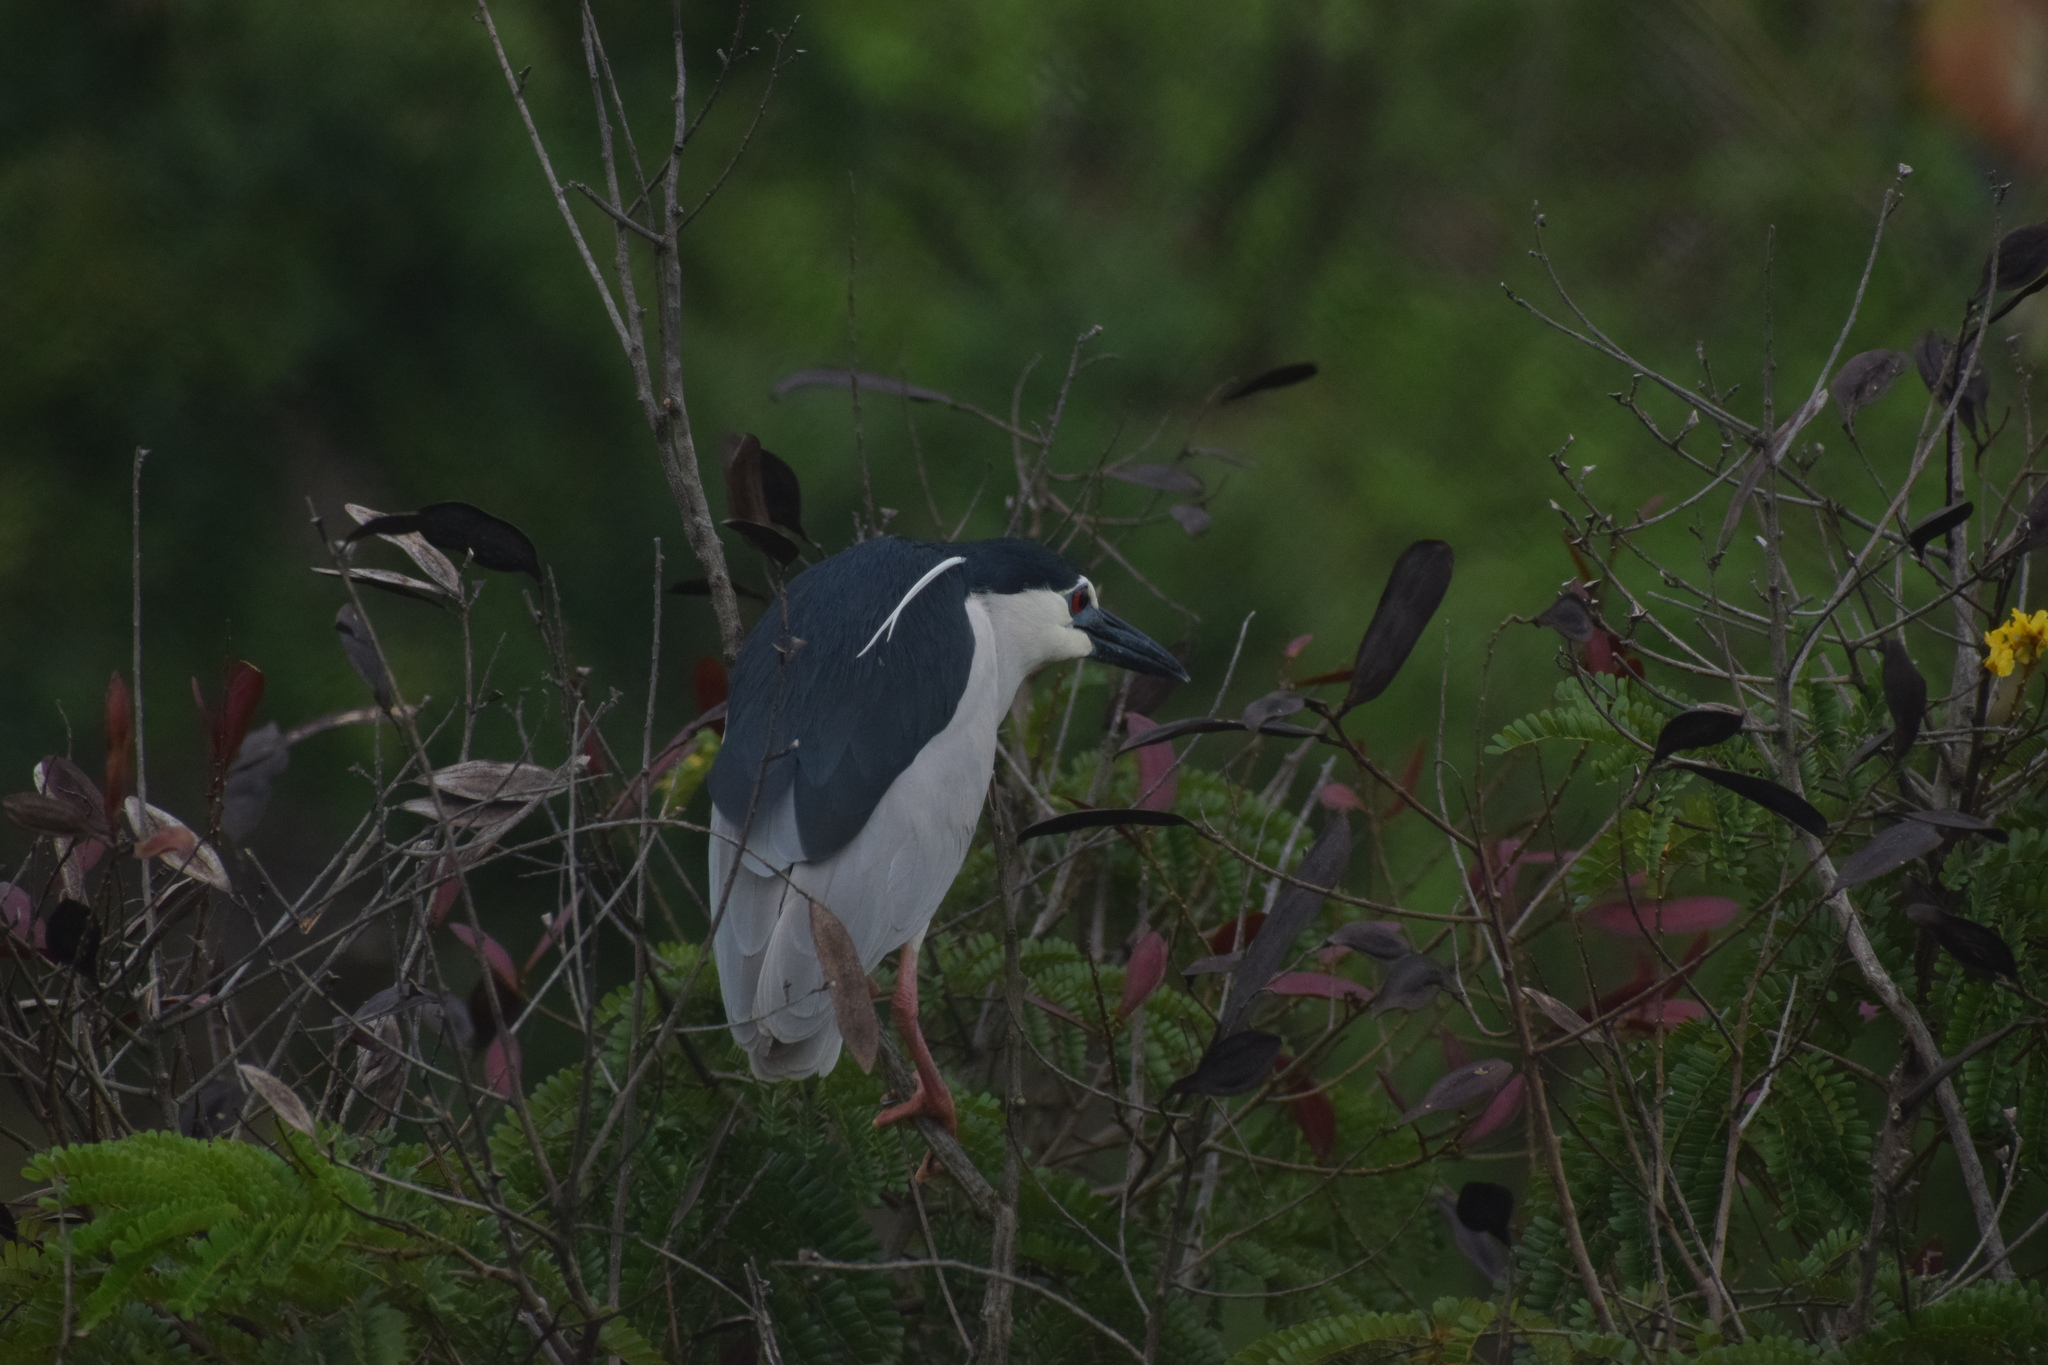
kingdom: Animalia
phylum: Chordata
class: Aves
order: Pelecaniformes
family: Ardeidae
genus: Nycticorax
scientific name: Nycticorax nycticorax
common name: Black-crowned night heron
